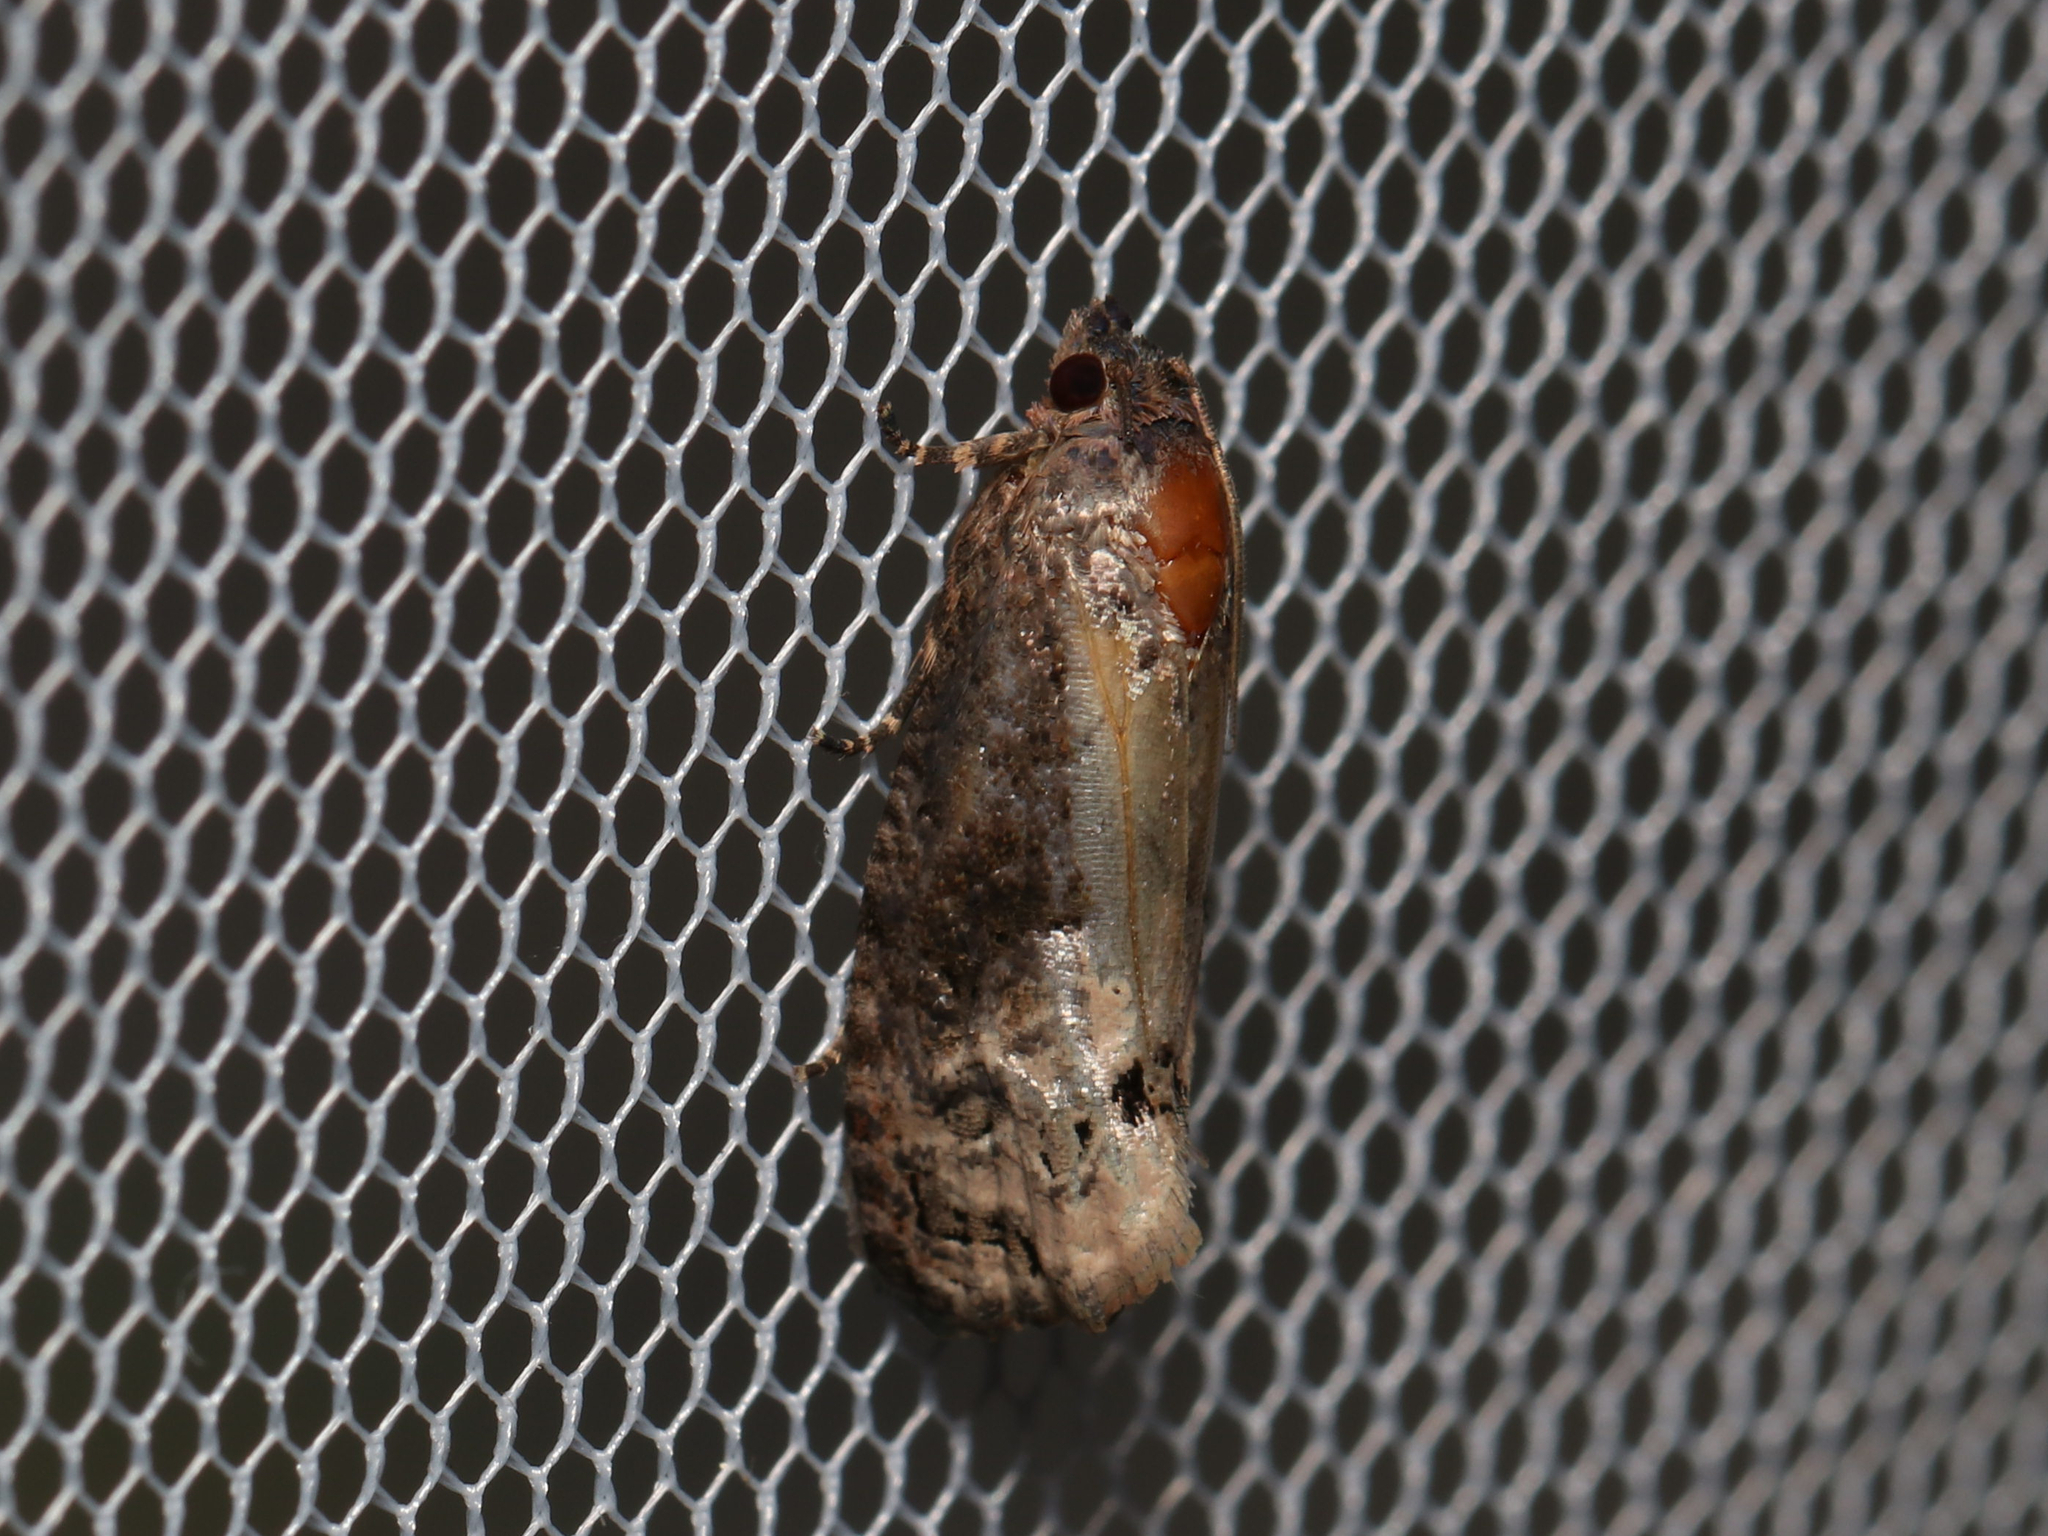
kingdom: Animalia
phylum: Arthropoda
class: Insecta
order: Lepidoptera
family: Tortricidae
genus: Ecdytolopha
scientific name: Ecdytolopha insiticiana
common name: Locust twig borer moth
